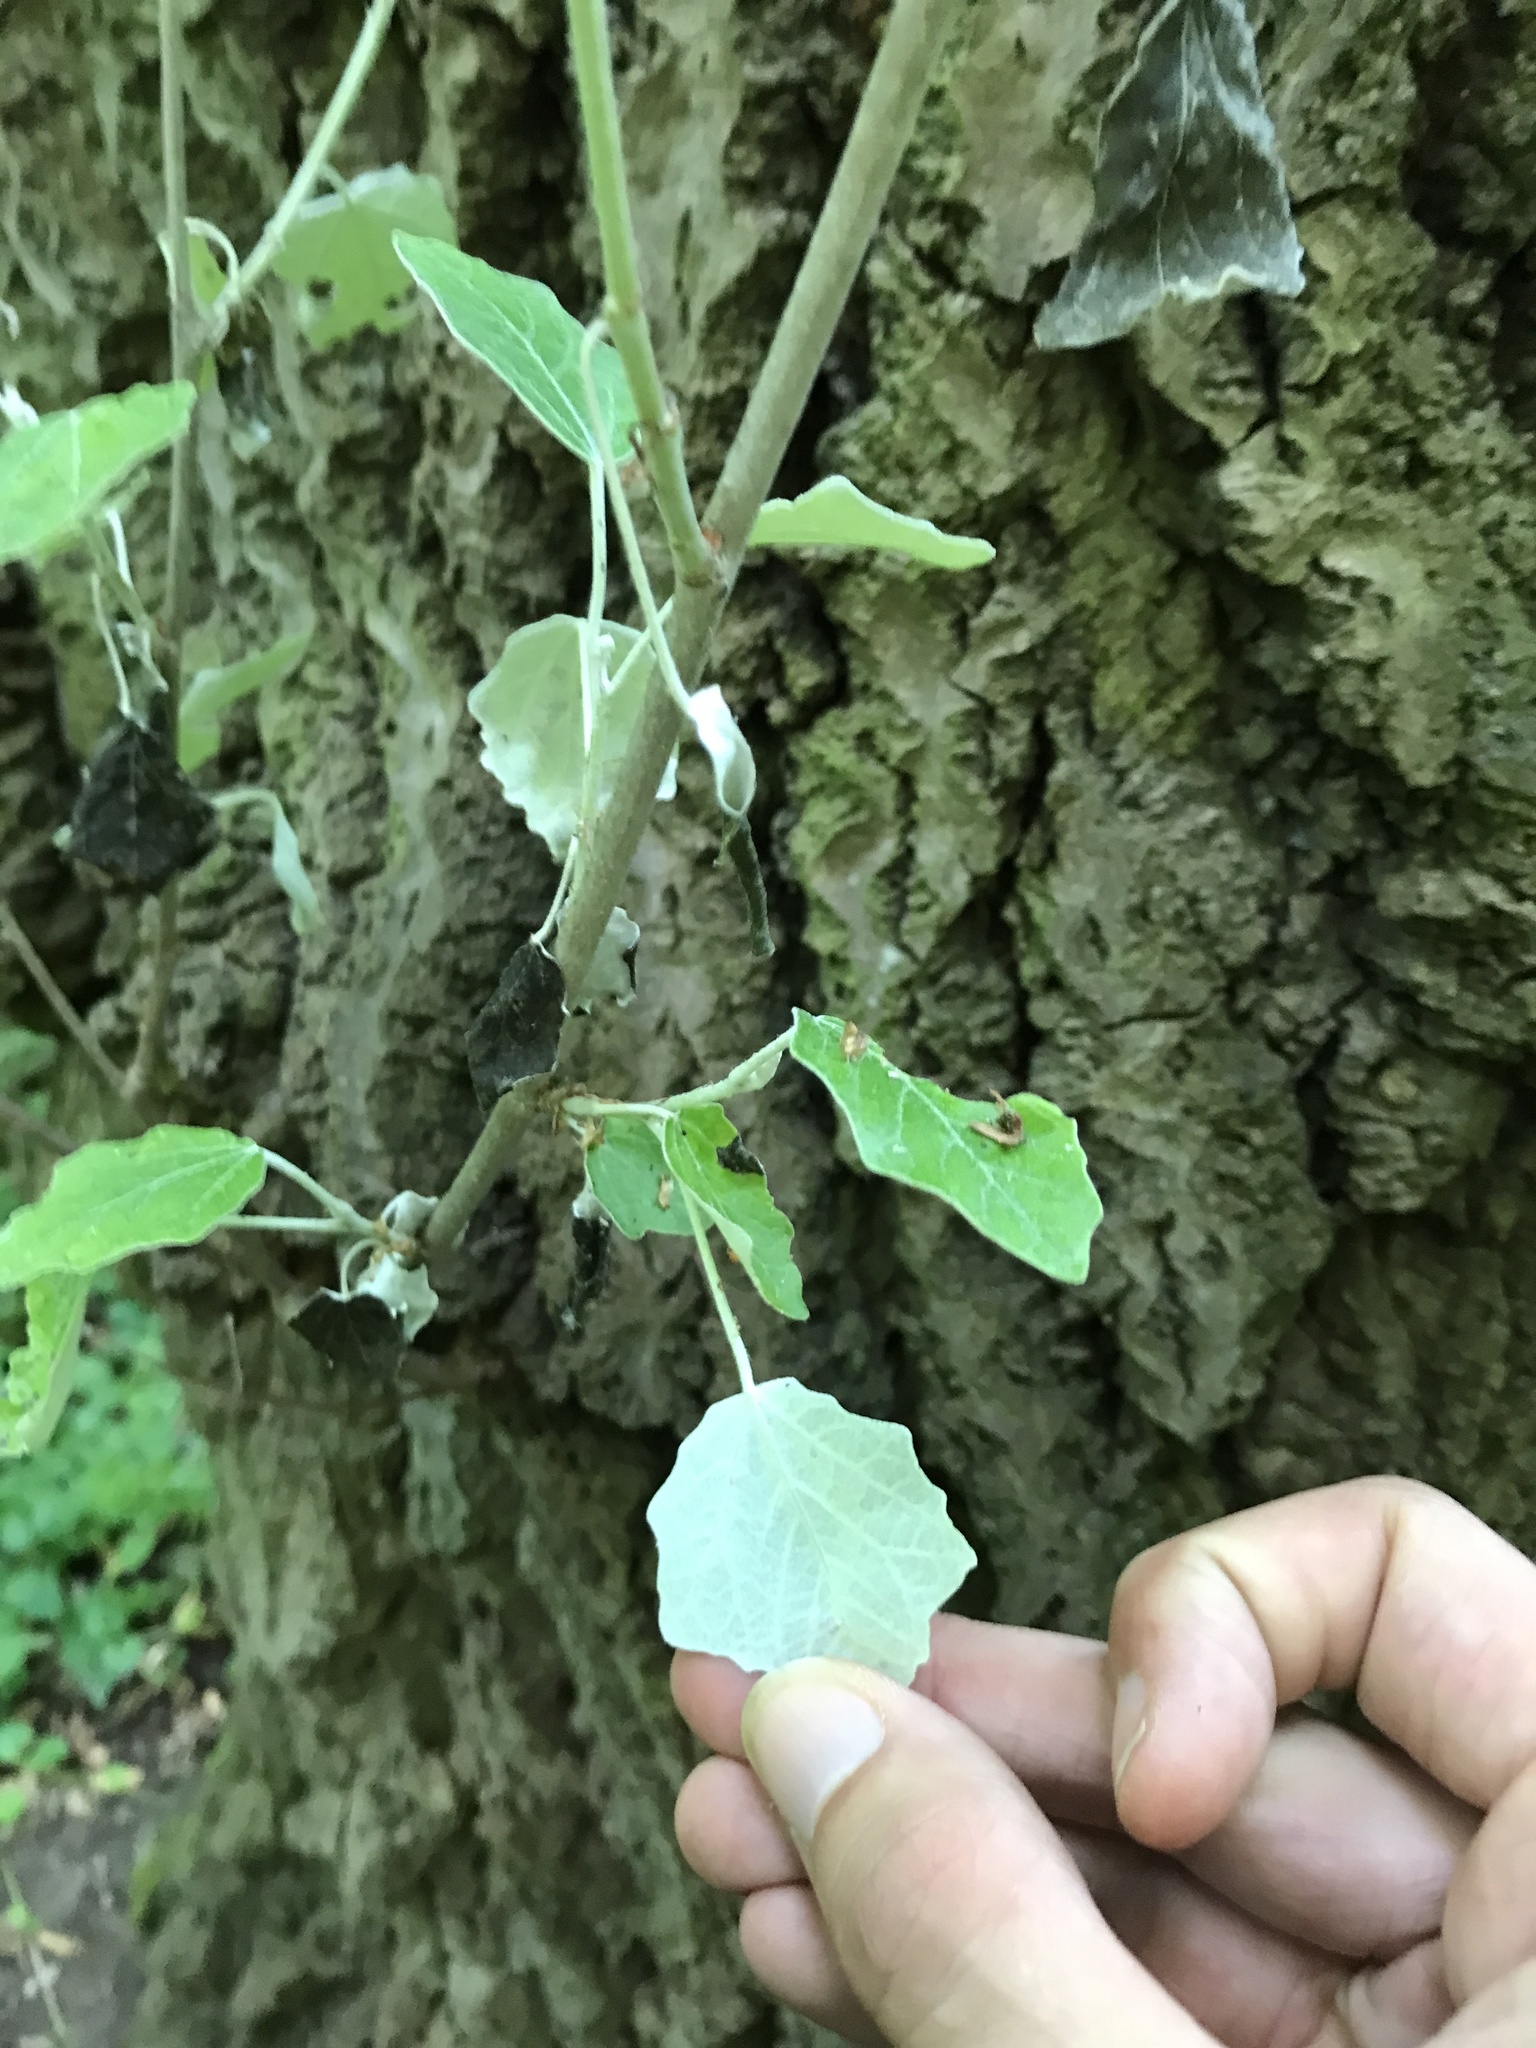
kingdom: Plantae
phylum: Tracheophyta
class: Magnoliopsida
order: Malpighiales
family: Salicaceae
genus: Populus
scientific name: Populus alba
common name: White poplar
